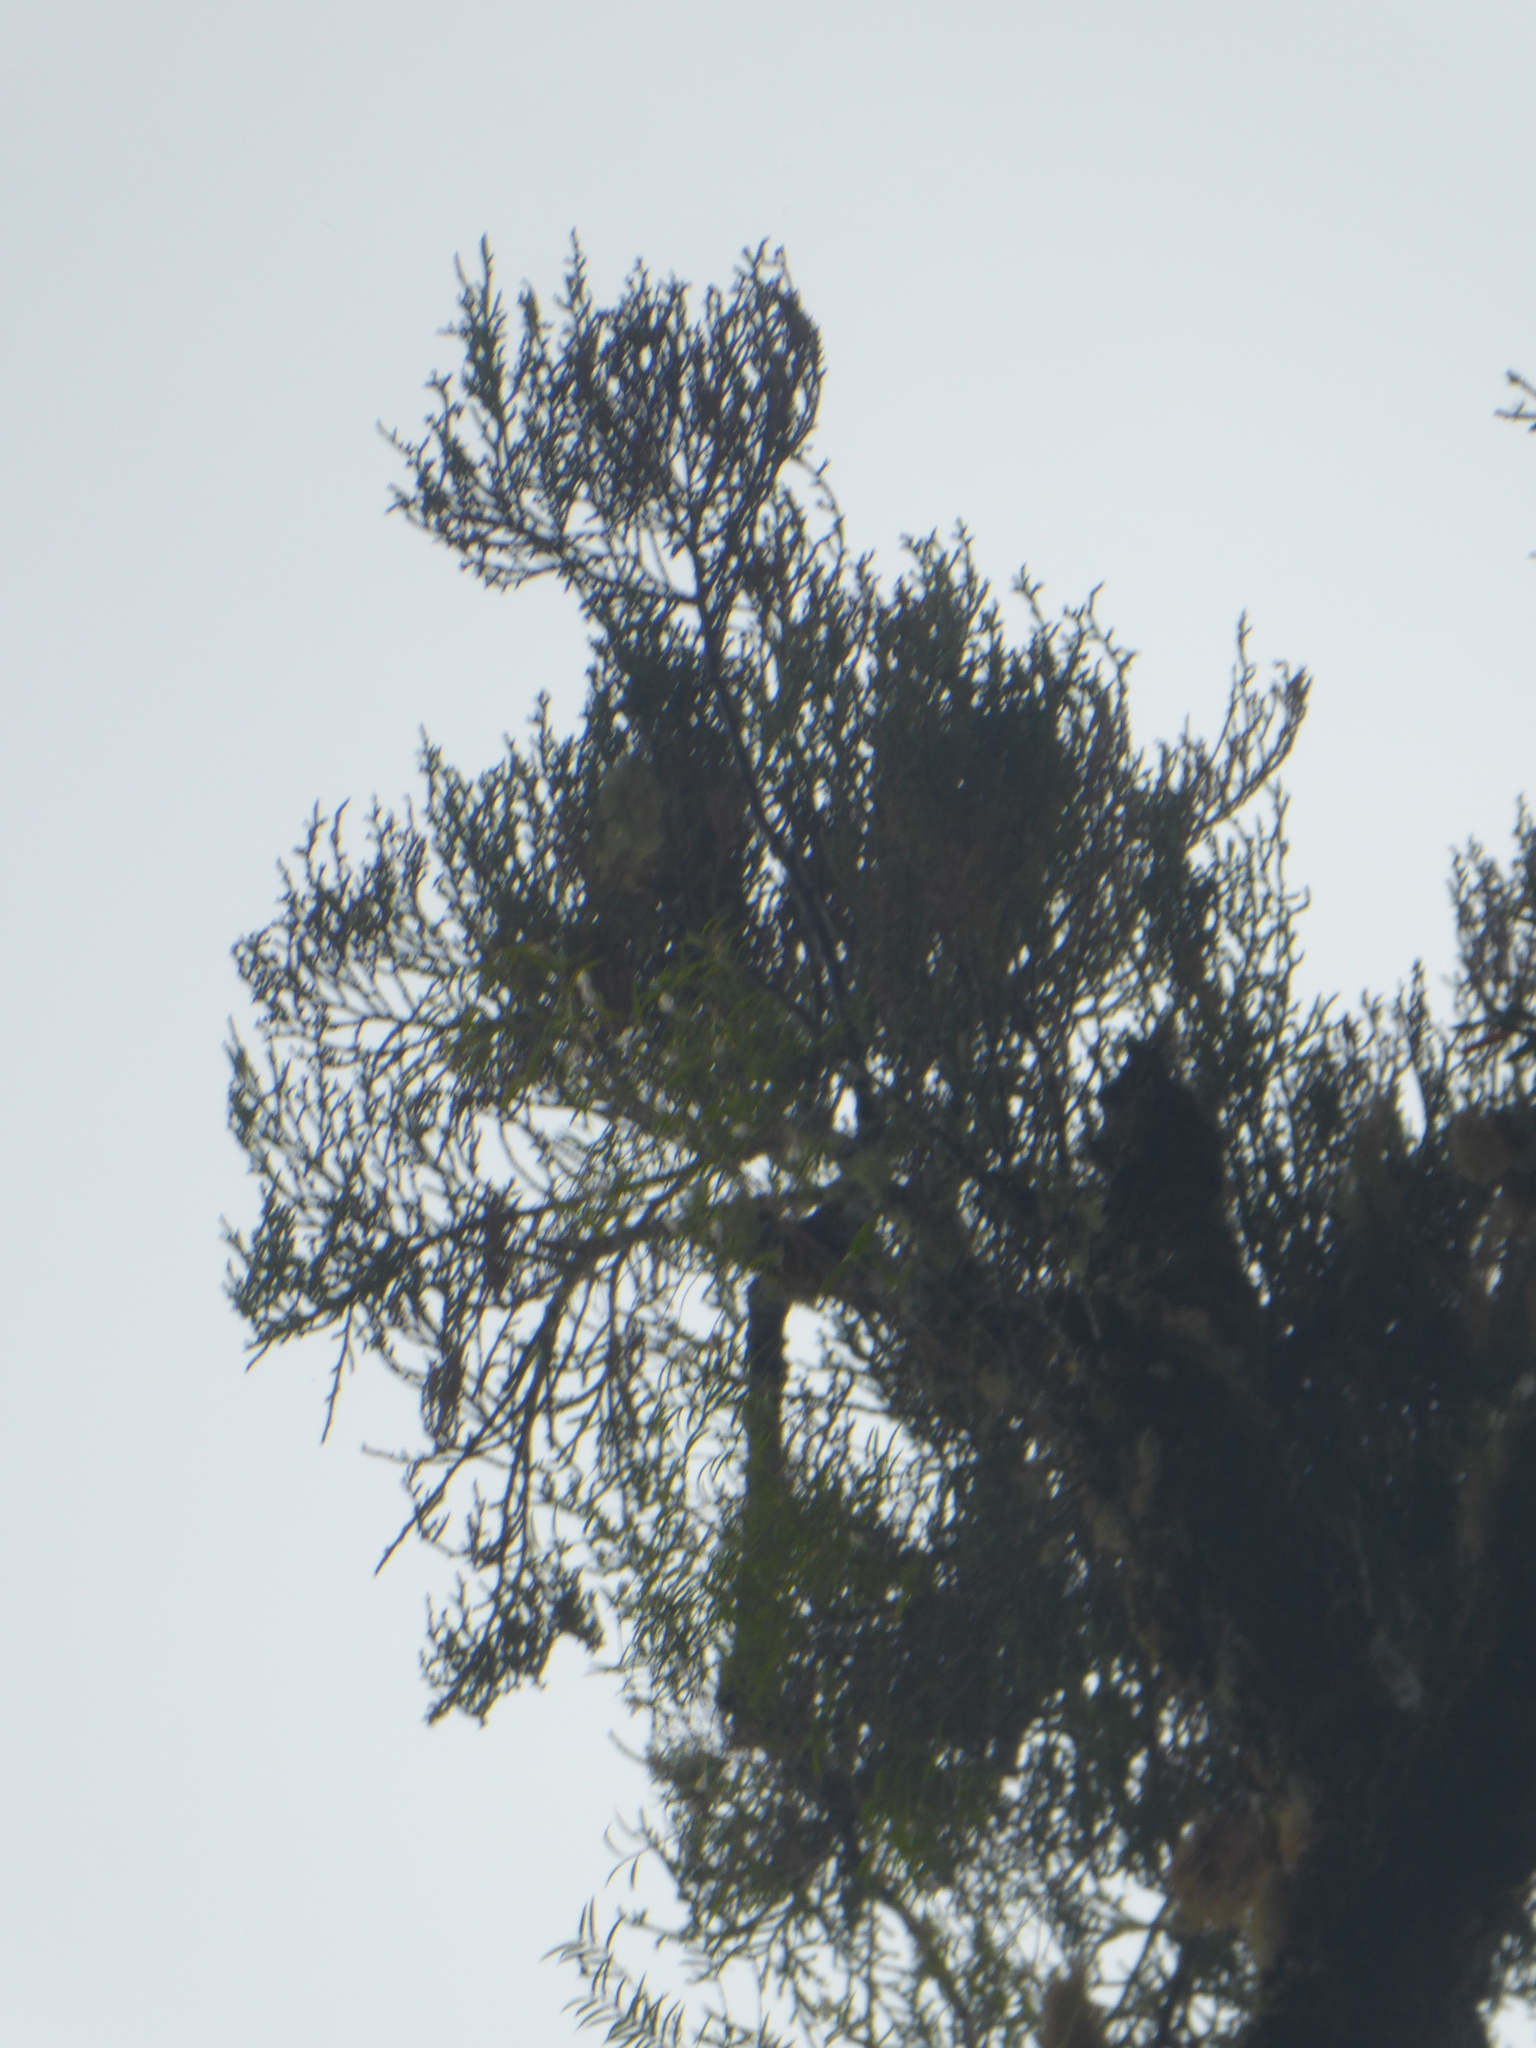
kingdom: Plantae
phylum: Tracheophyta
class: Pinopsida
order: Pinales
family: Podocarpaceae
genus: Dacrydium
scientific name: Dacrydium cupressinum
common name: Red pine
